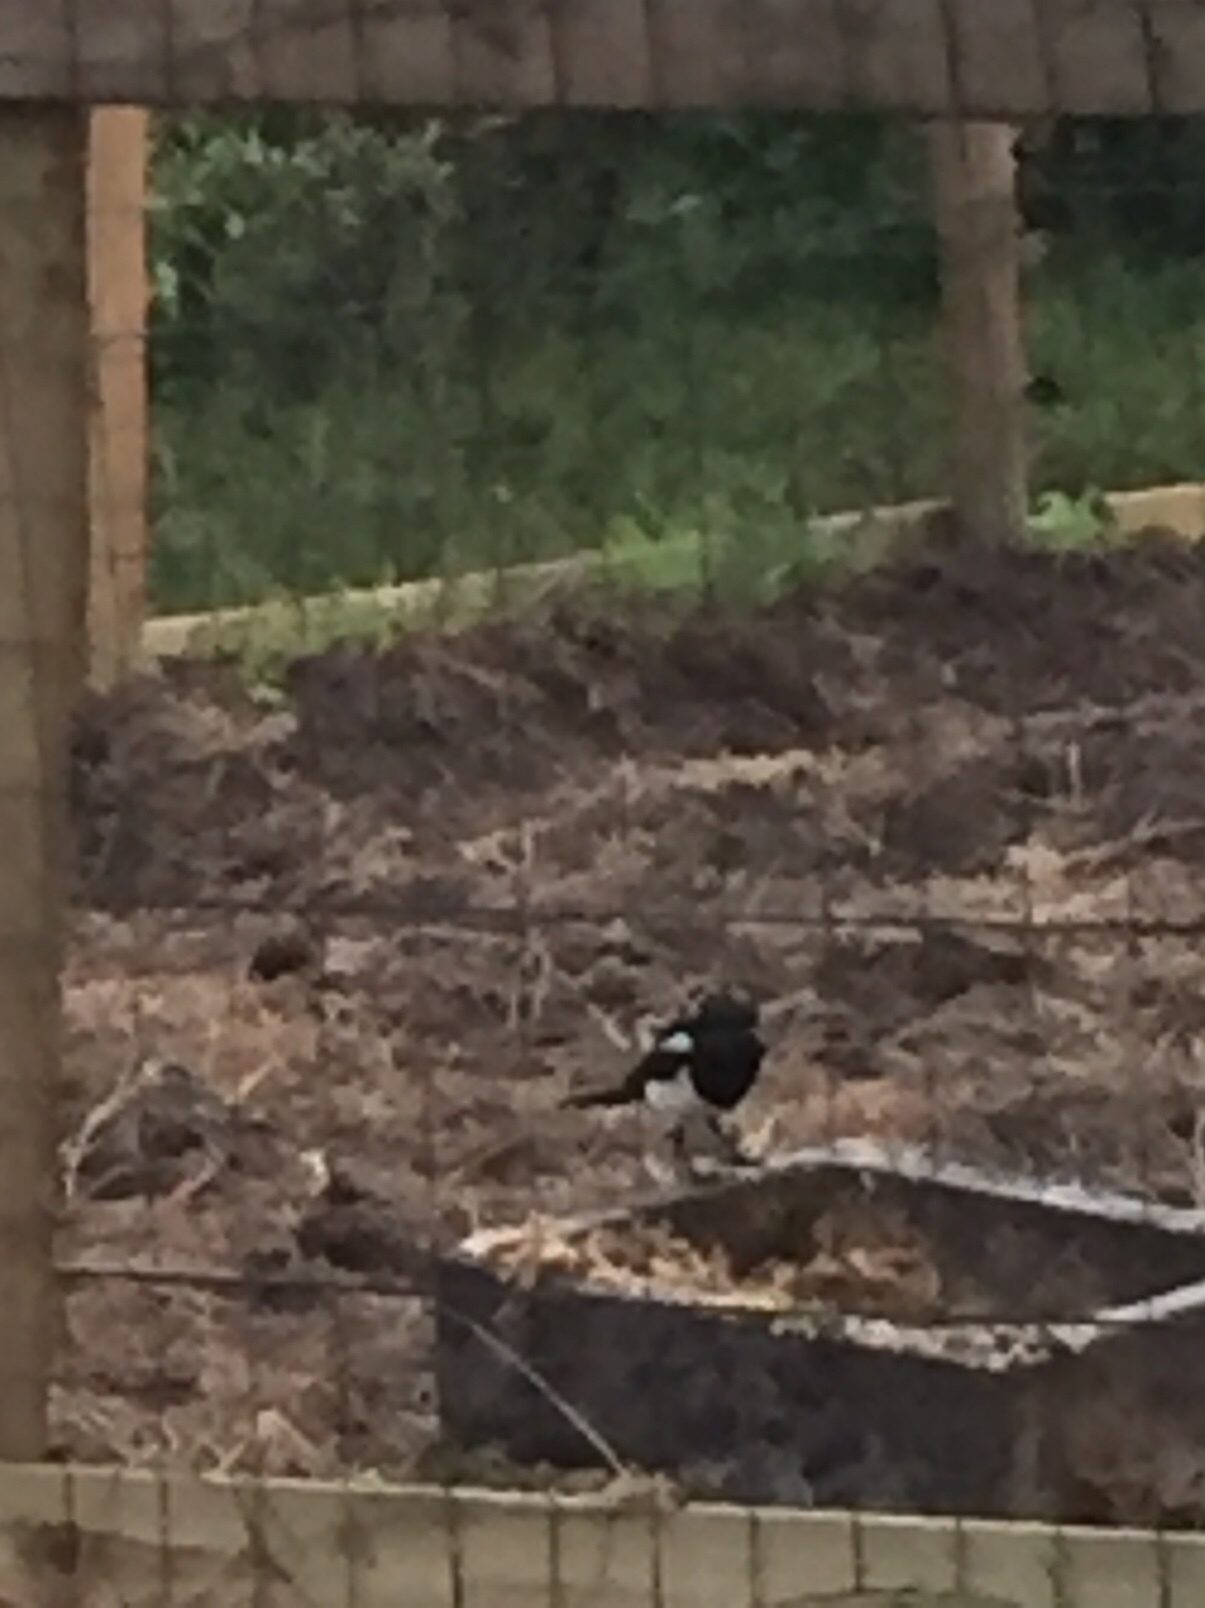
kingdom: Animalia
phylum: Chordata
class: Aves
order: Passeriformes
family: Corvidae
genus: Pica
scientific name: Pica pica
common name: Eurasian magpie
